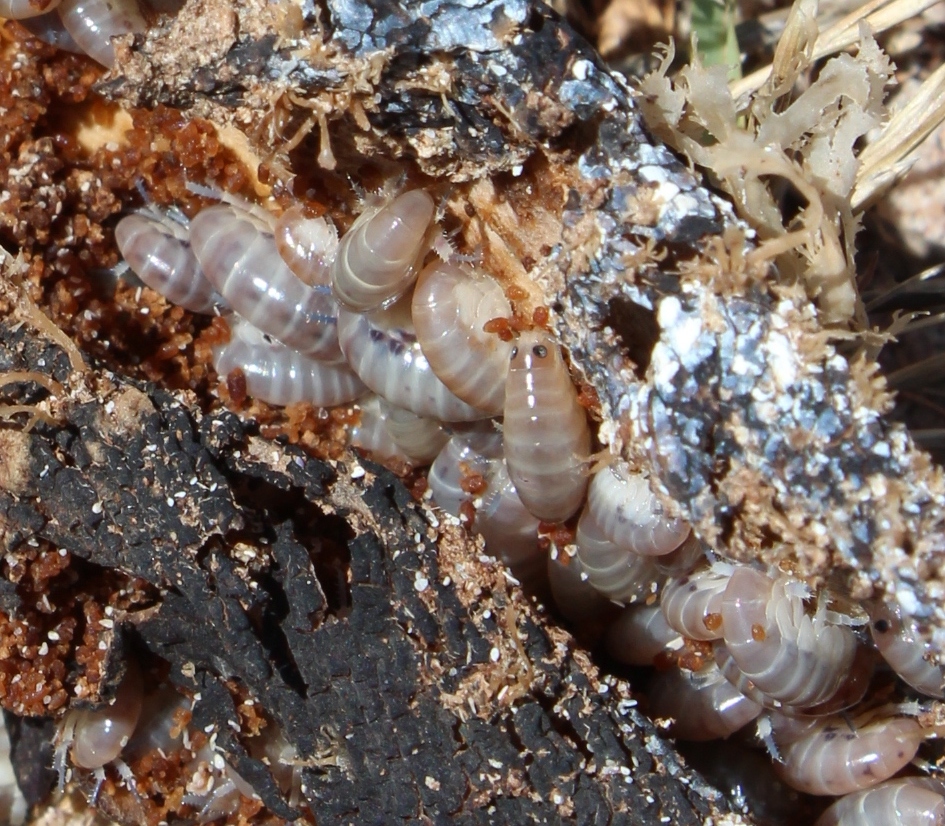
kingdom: Animalia
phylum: Arthropoda
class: Malacostraca
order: Amphipoda
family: Talitridae
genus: Capeorchestia
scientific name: Capeorchestia capensis
